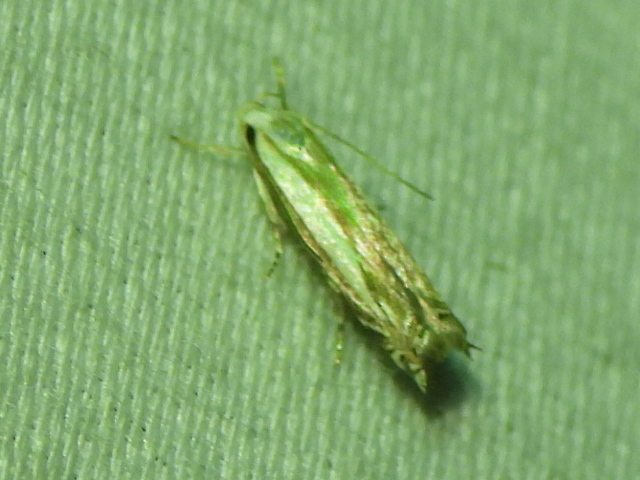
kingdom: Animalia
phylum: Arthropoda
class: Insecta
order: Lepidoptera
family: Gelechiidae
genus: Polyhymno
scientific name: Polyhymno luteostrigella
